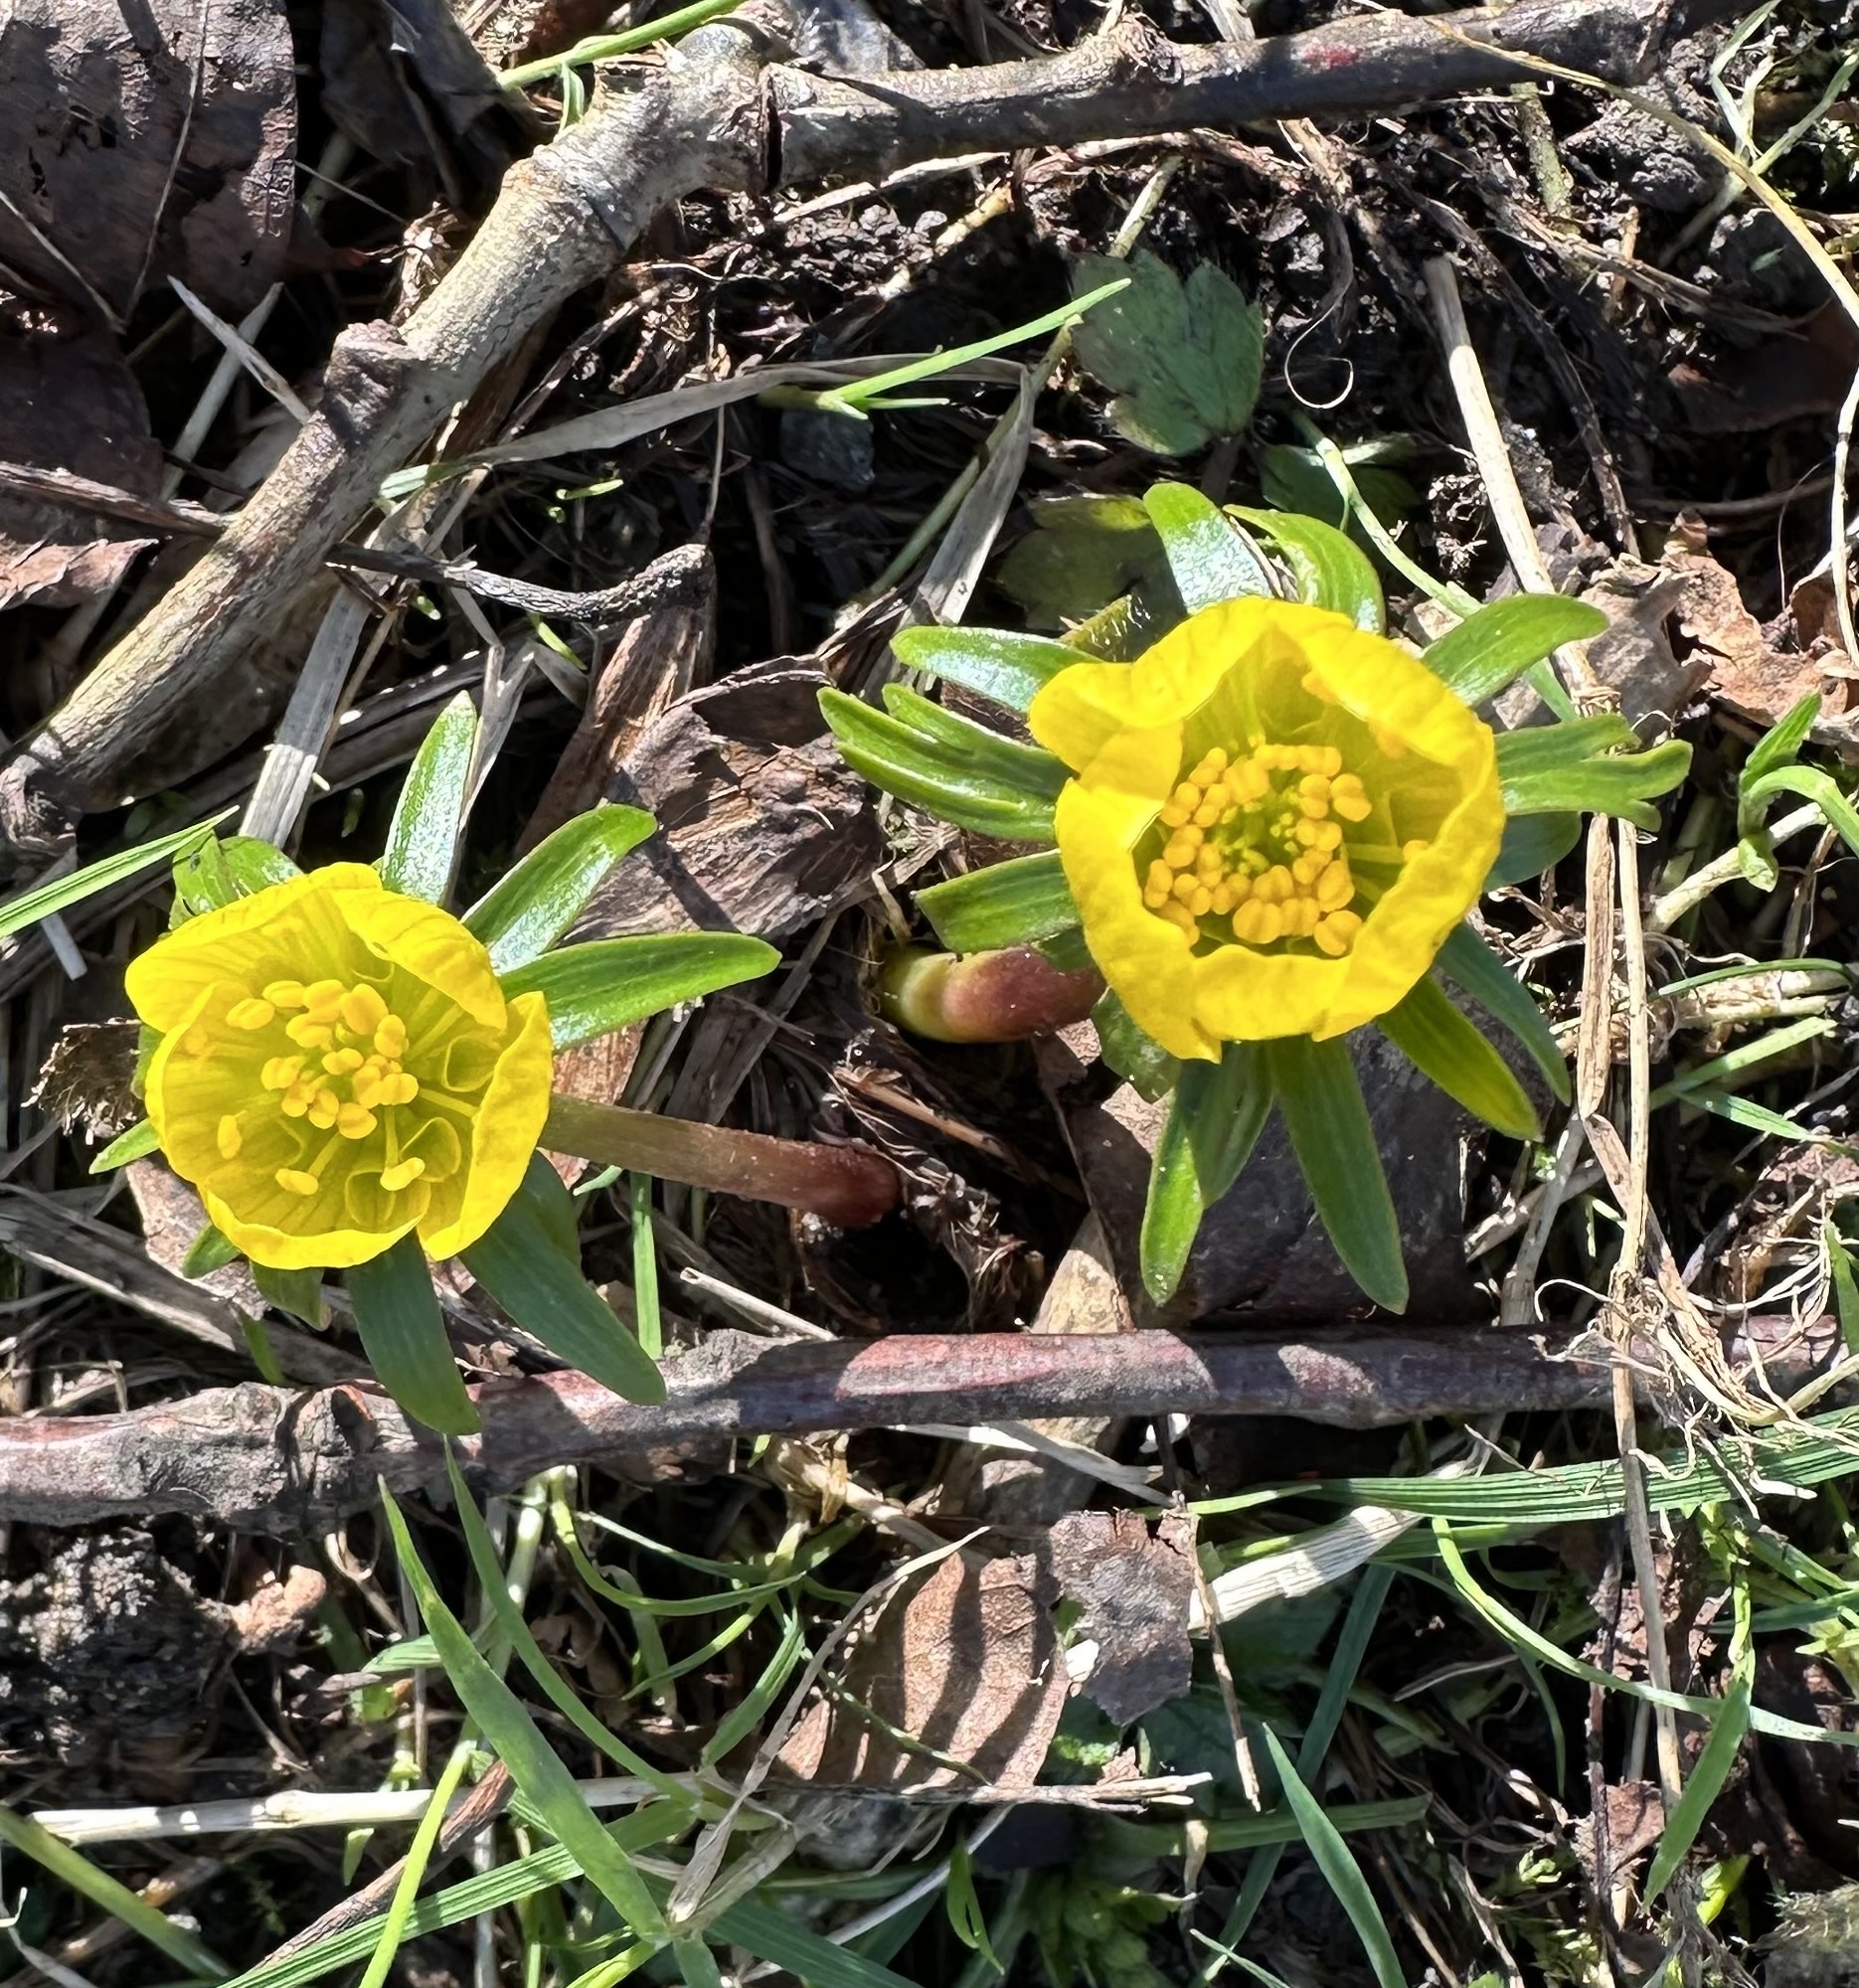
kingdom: Plantae
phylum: Tracheophyta
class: Magnoliopsida
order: Ranunculales
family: Ranunculaceae
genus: Eranthis
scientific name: Eranthis hyemalis
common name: Winter aconite
